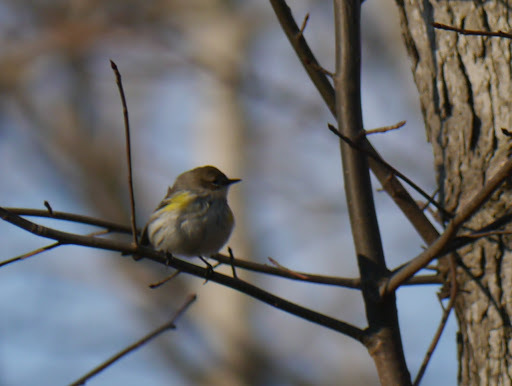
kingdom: Animalia
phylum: Chordata
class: Aves
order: Passeriformes
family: Parulidae
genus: Setophaga
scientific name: Setophaga coronata
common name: Myrtle warbler
